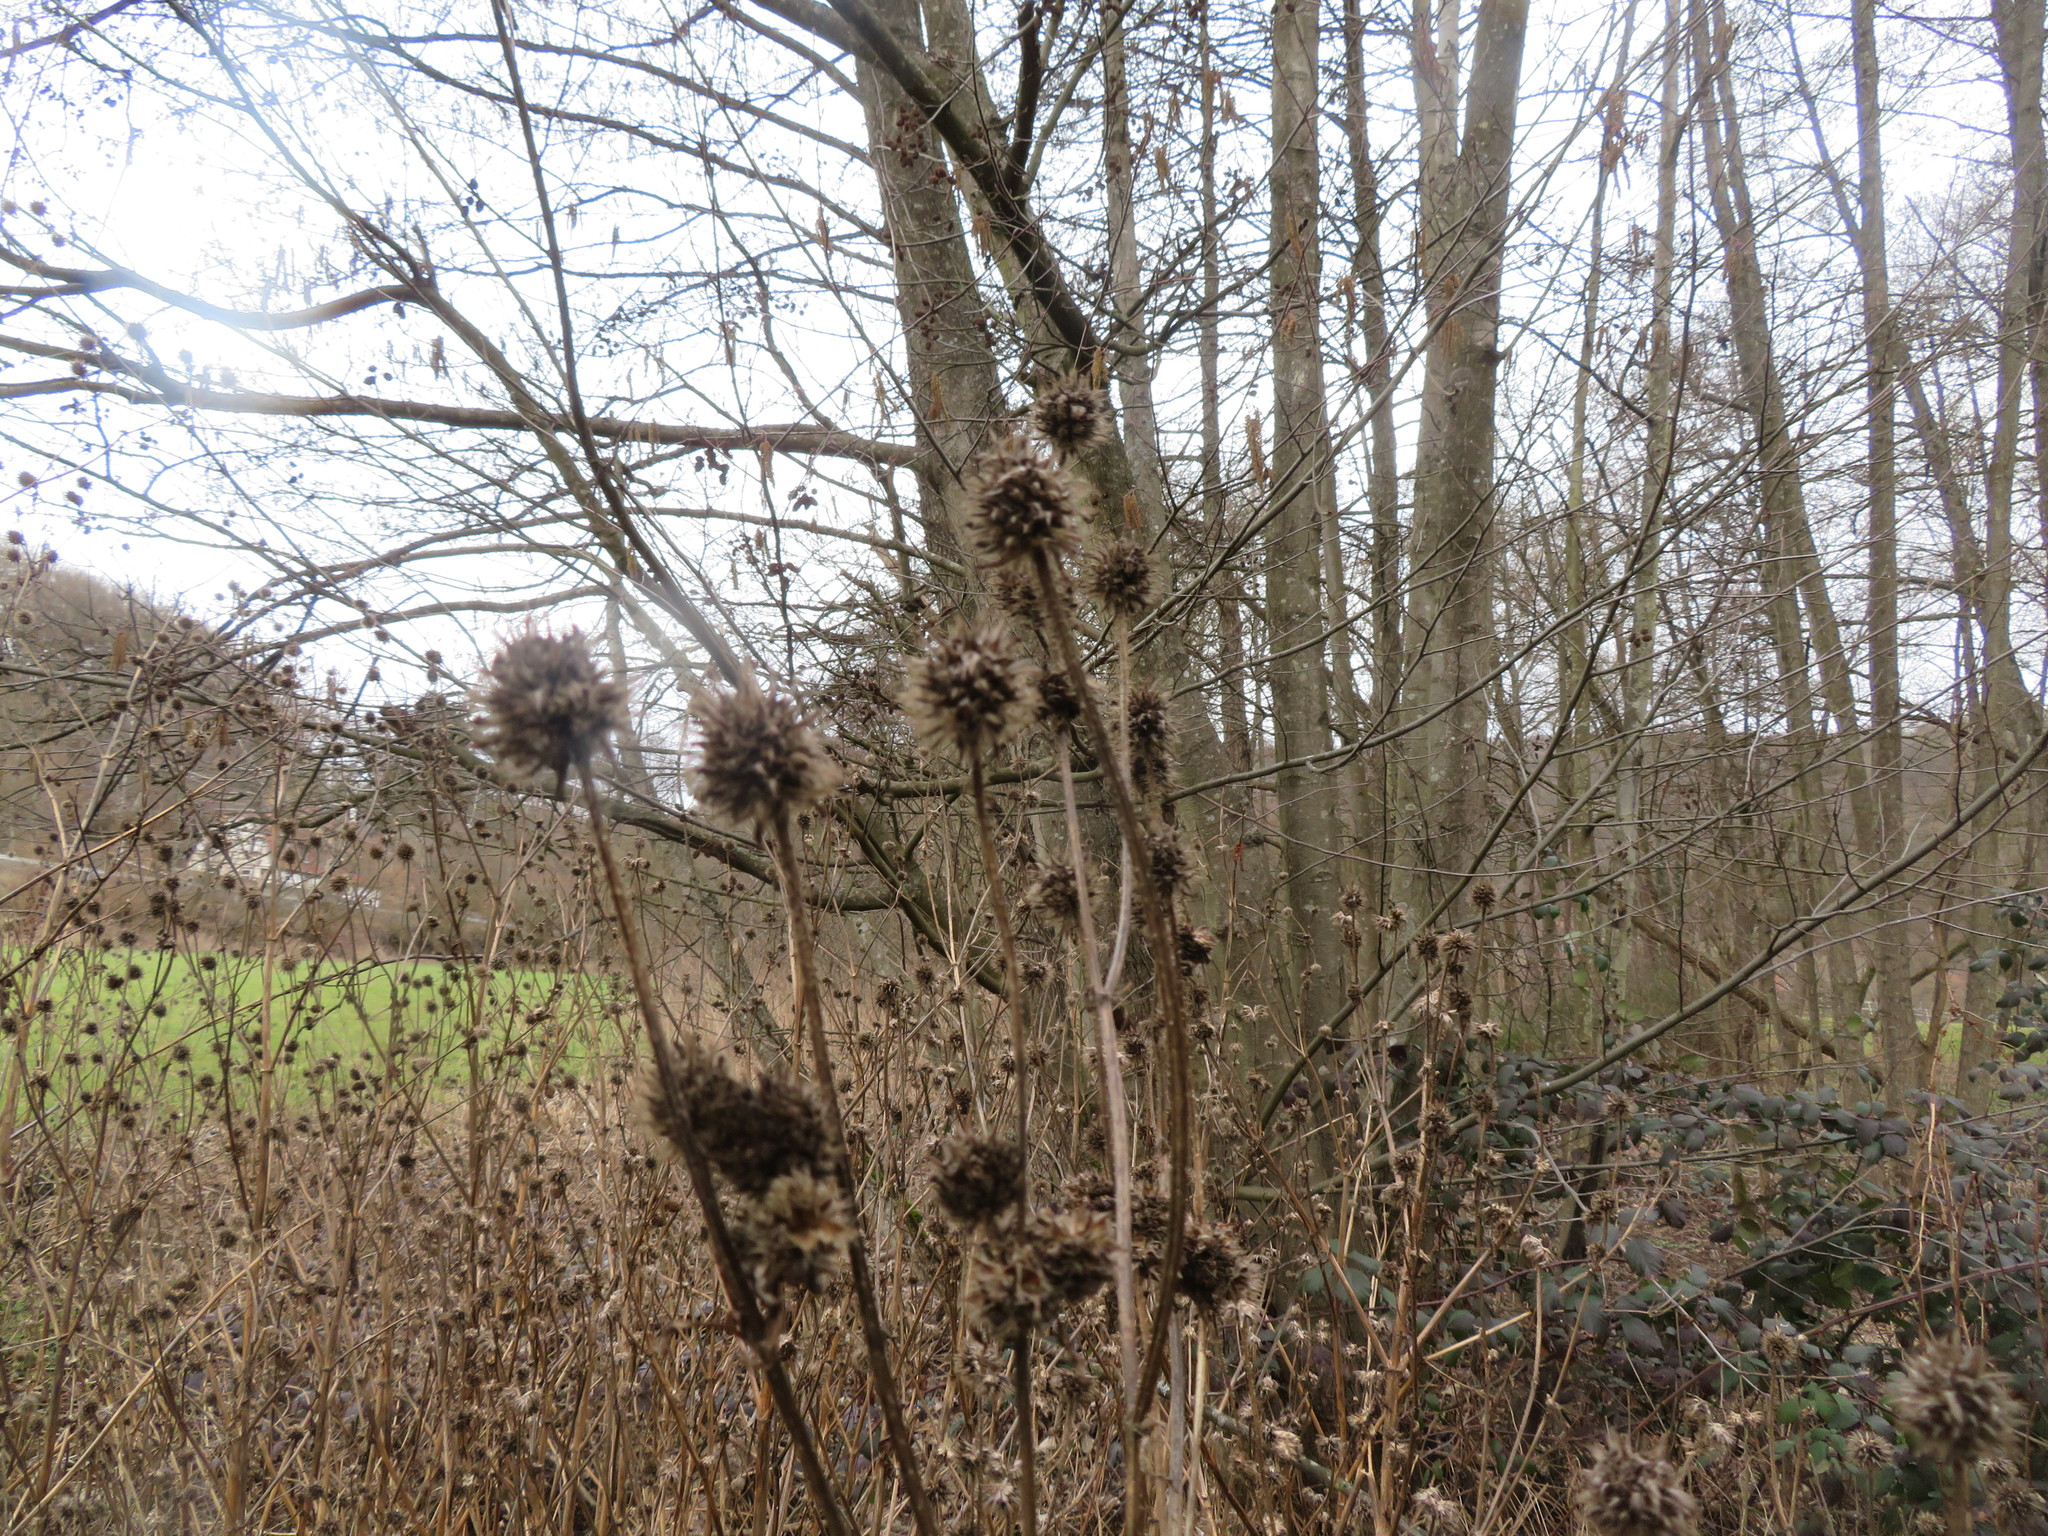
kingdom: Plantae
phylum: Tracheophyta
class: Magnoliopsida
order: Dipsacales
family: Caprifoliaceae
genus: Dipsacus
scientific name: Dipsacus pilosus
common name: Small teasel
